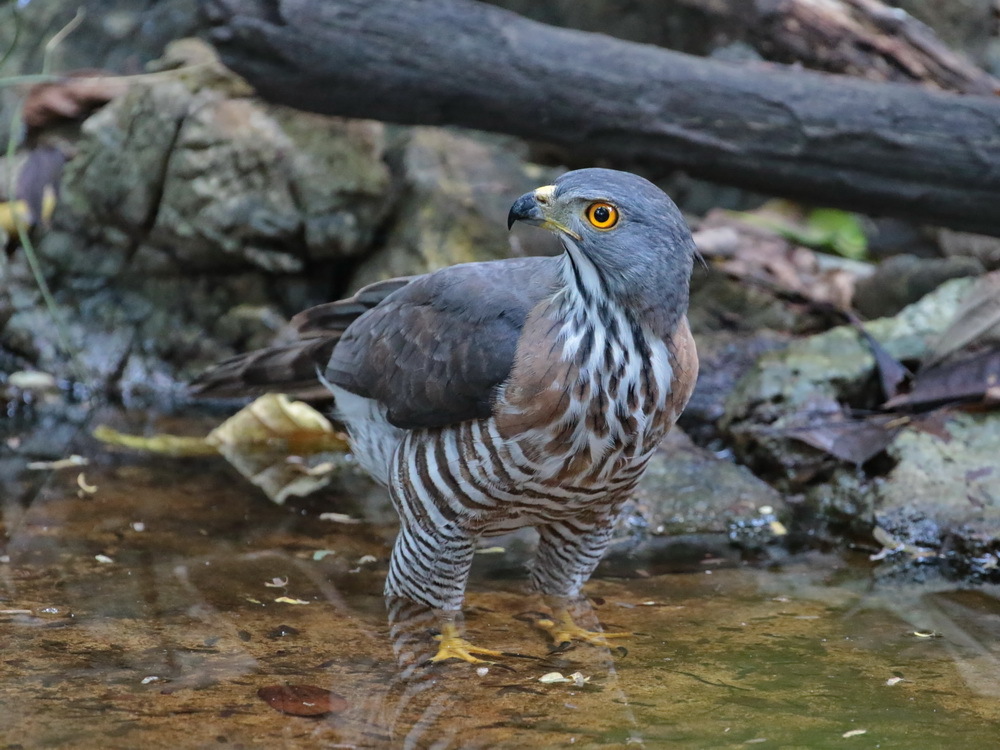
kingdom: Animalia
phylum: Chordata
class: Aves
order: Accipitriformes
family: Accipitridae
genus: Accipiter
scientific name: Accipiter trivirgatus
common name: Crested goshawk
